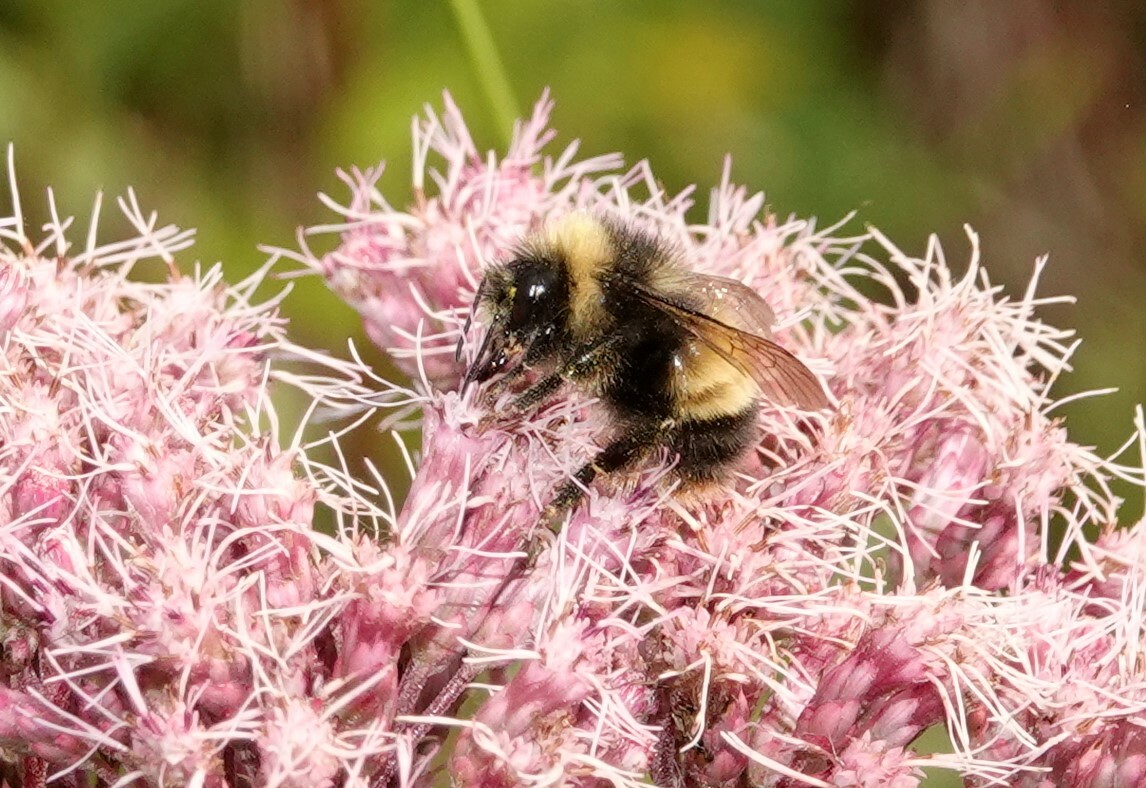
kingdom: Animalia
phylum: Arthropoda
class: Insecta
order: Hymenoptera
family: Apidae
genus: Bombus
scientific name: Bombus terricola
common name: Yellow-banded bumble bee
